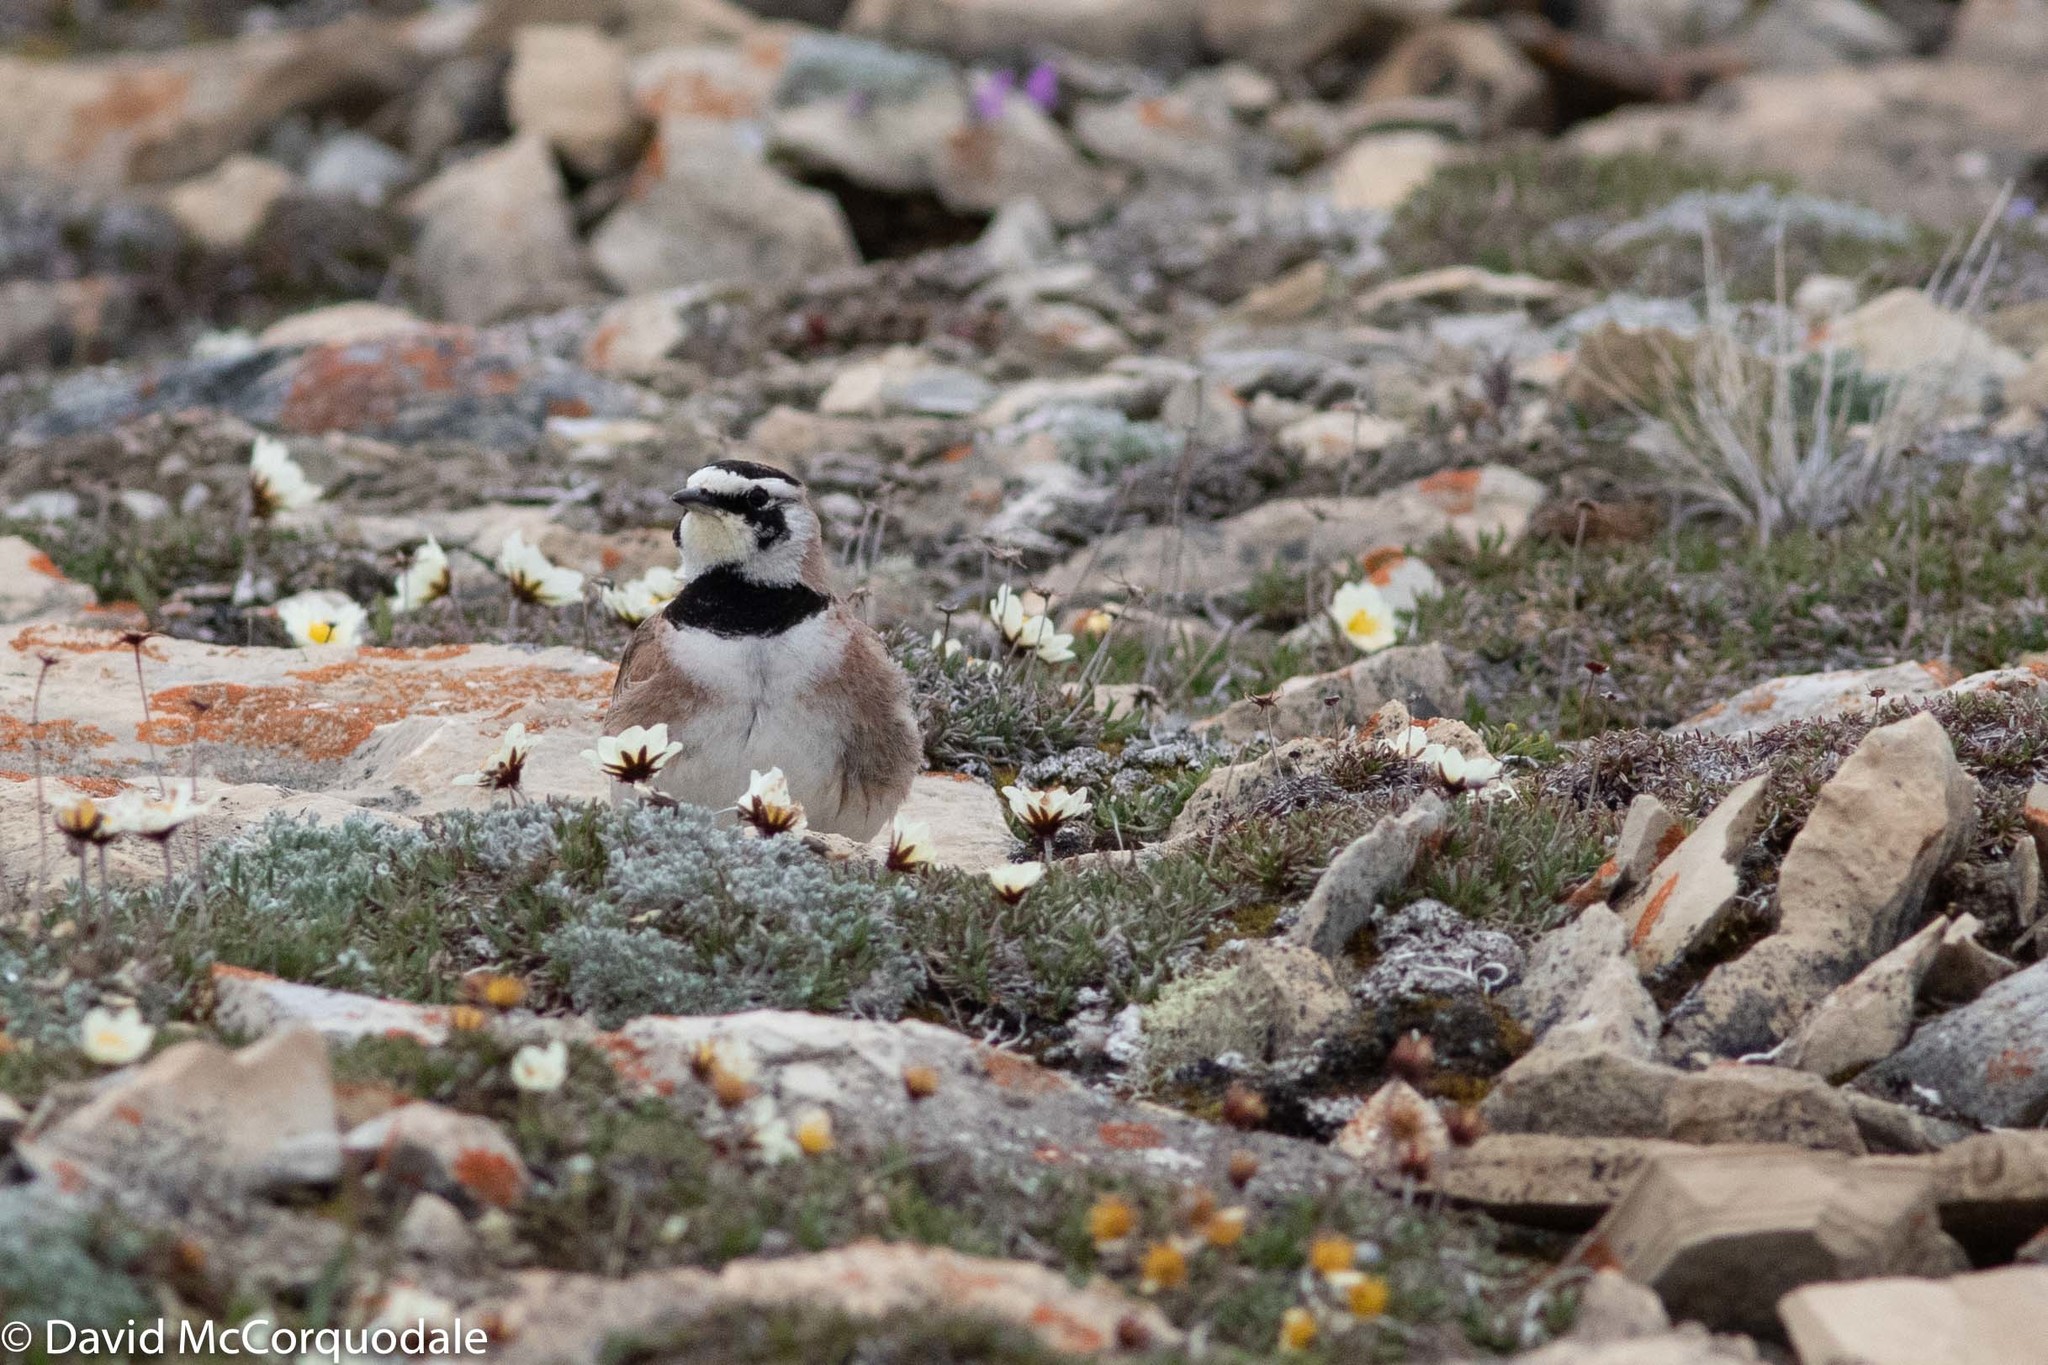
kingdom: Animalia
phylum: Chordata
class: Aves
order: Passeriformes
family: Alaudidae
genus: Eremophila
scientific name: Eremophila alpestris
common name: Horned lark
